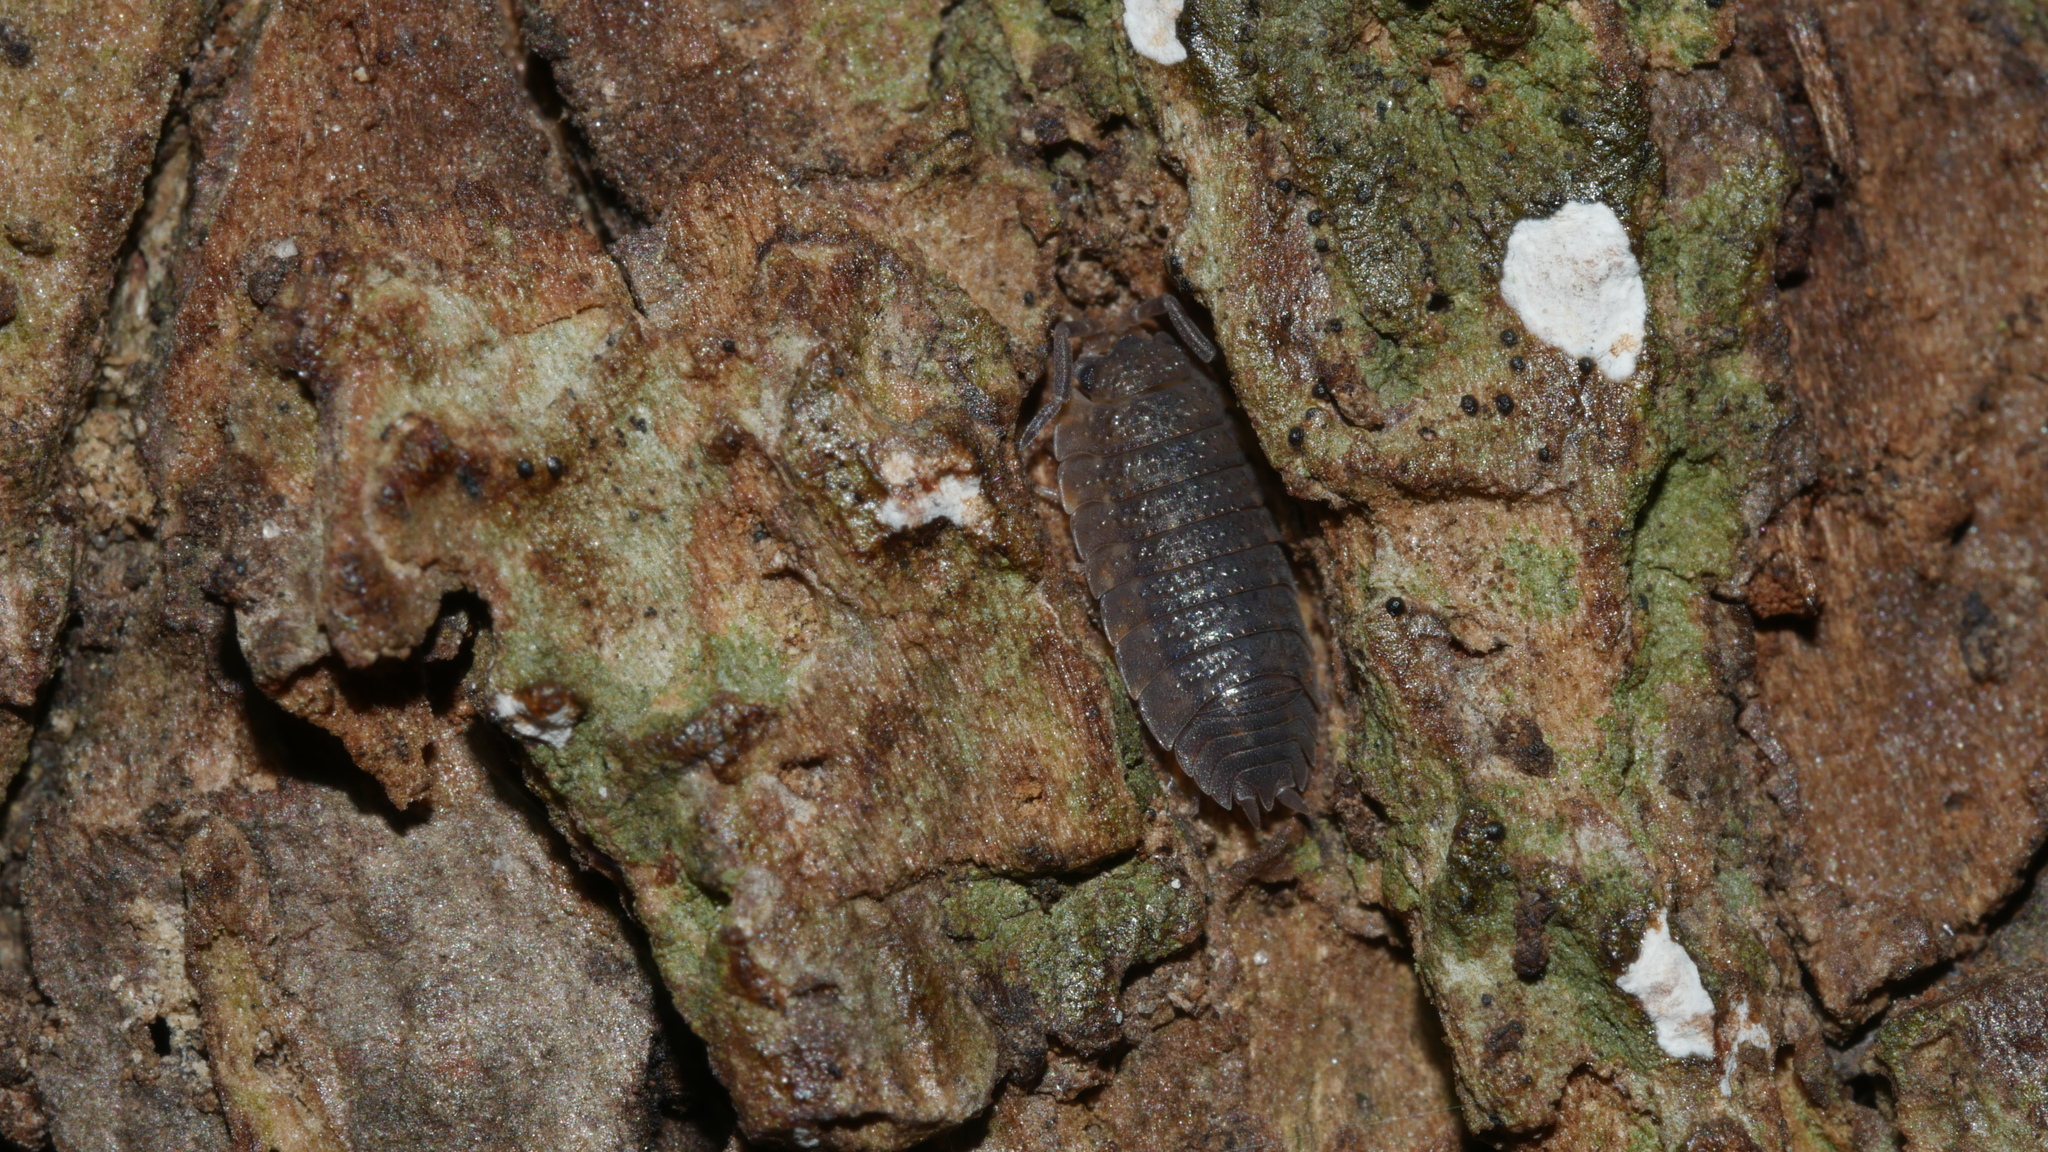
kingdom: Animalia
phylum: Arthropoda
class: Malacostraca
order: Isopoda
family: Porcellionidae
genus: Porcellio
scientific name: Porcellio scaber
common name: Common rough woodlouse
